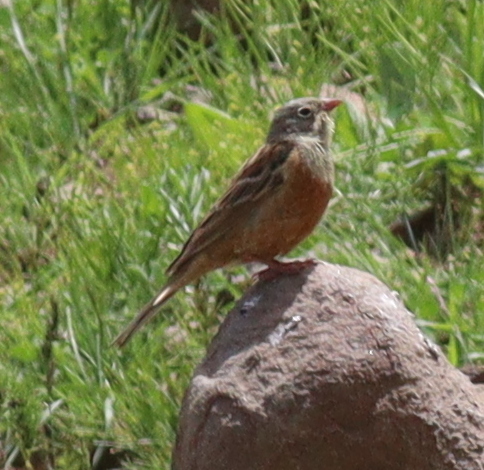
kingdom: Animalia
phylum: Chordata
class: Aves
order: Passeriformes
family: Emberizidae
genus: Emberiza
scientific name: Emberiza hortulana
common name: Ortolan bunting
